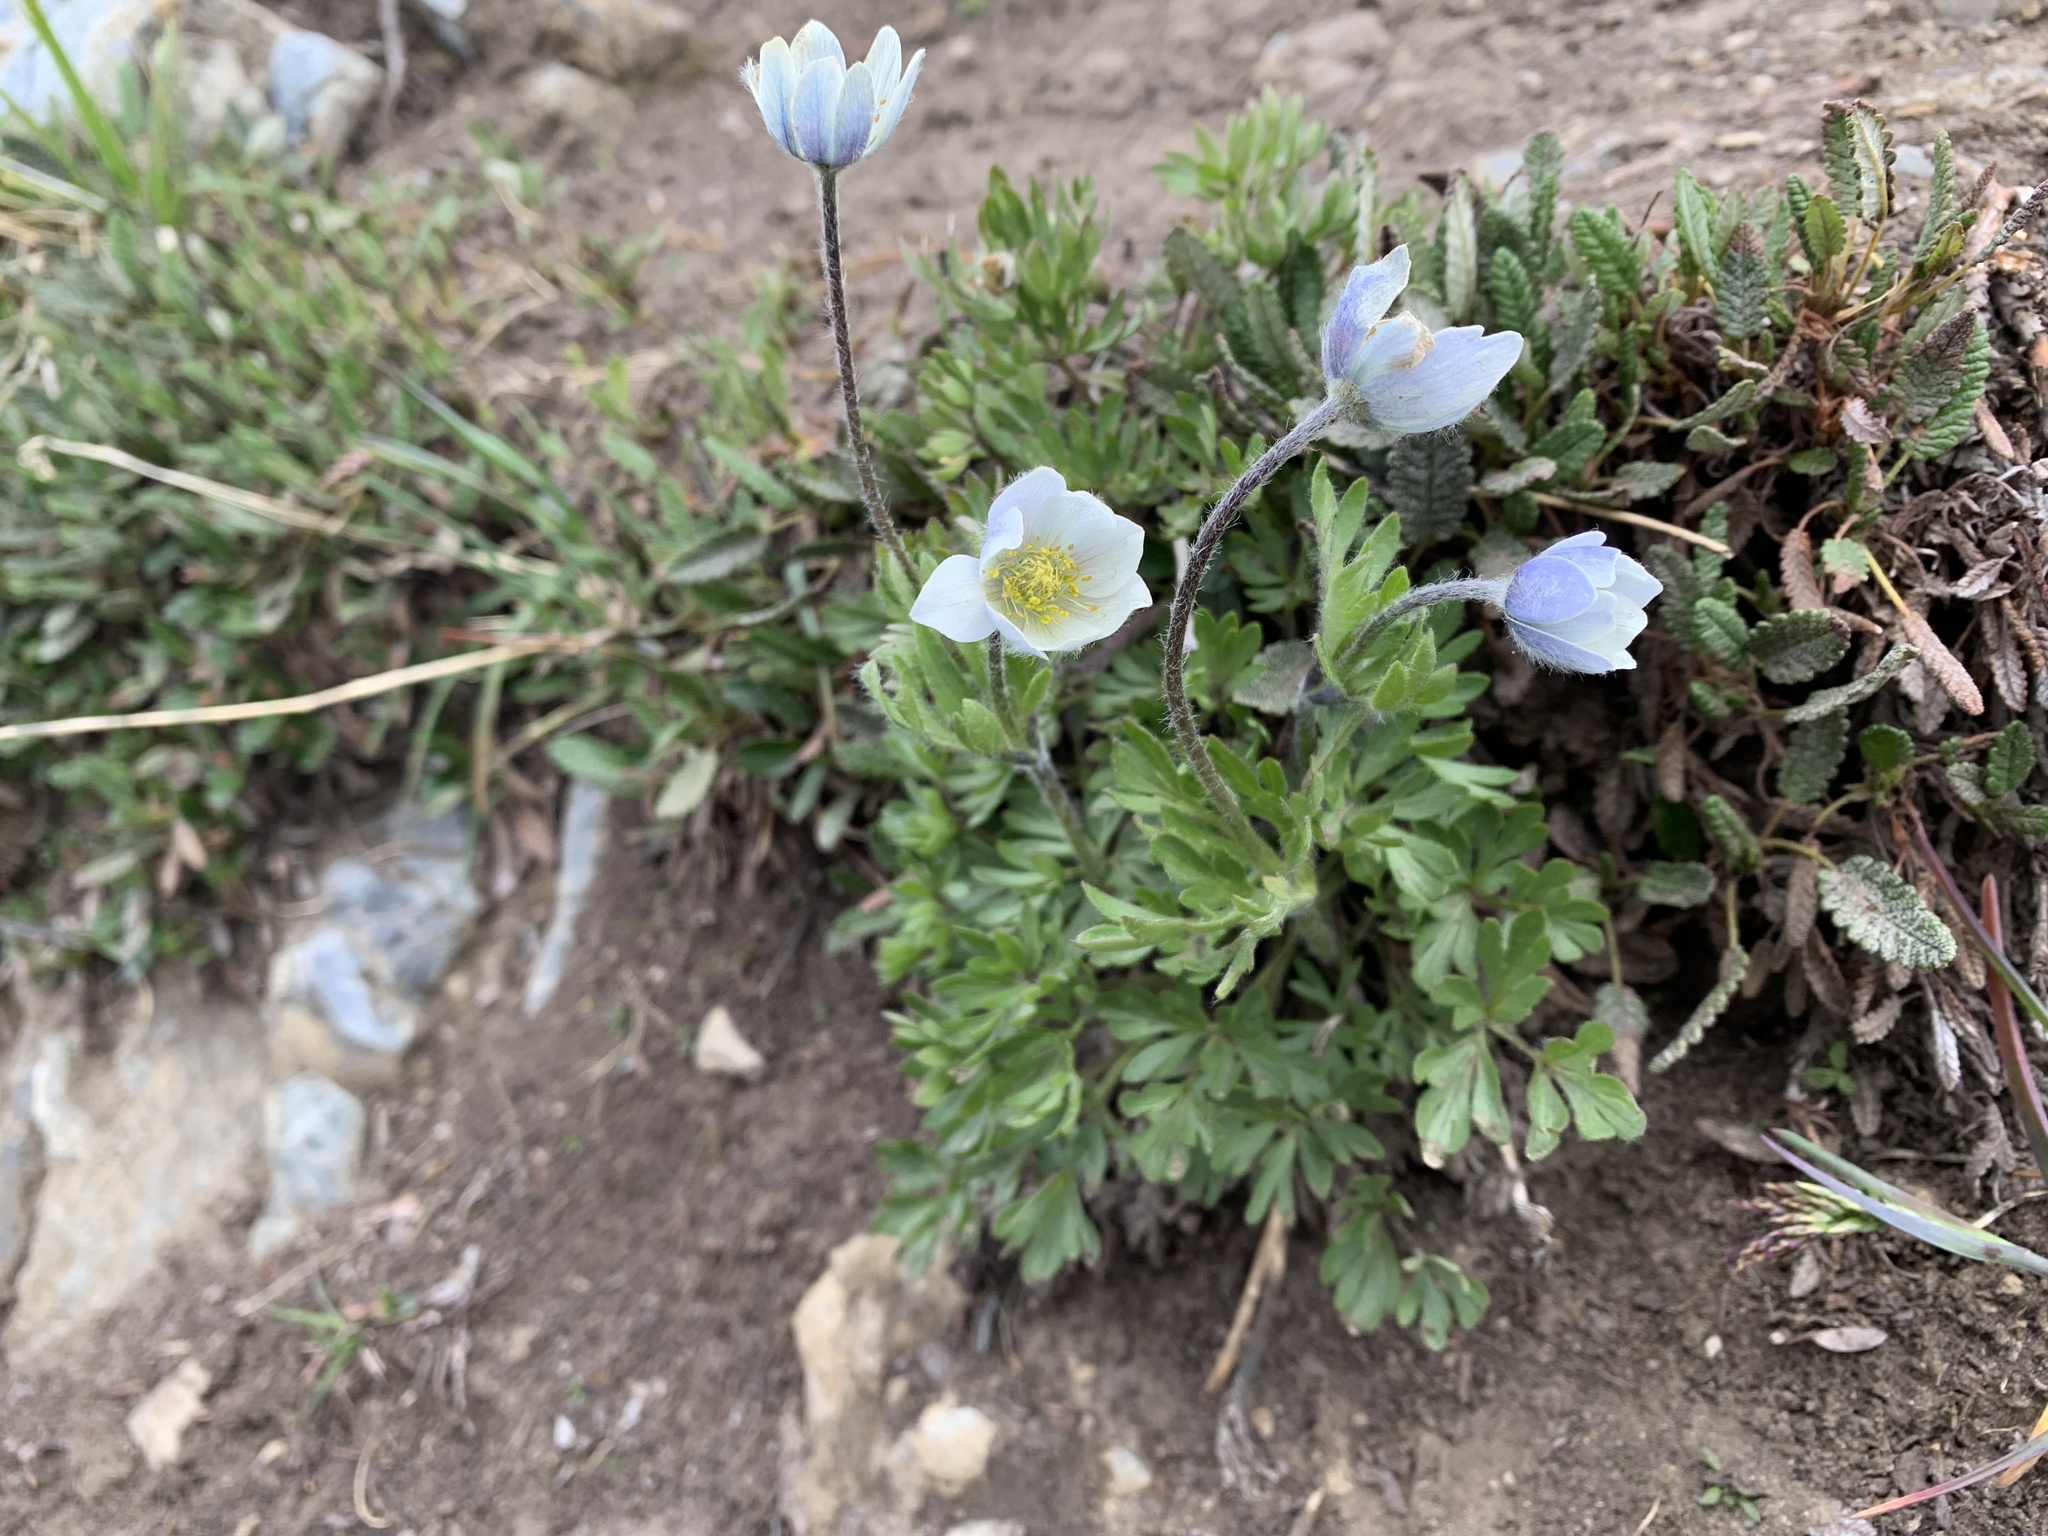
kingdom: Plantae
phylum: Tracheophyta
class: Magnoliopsida
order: Ranunculales
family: Ranunculaceae
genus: Anemone
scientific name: Anemone drummondii
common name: Drummond's anemone
